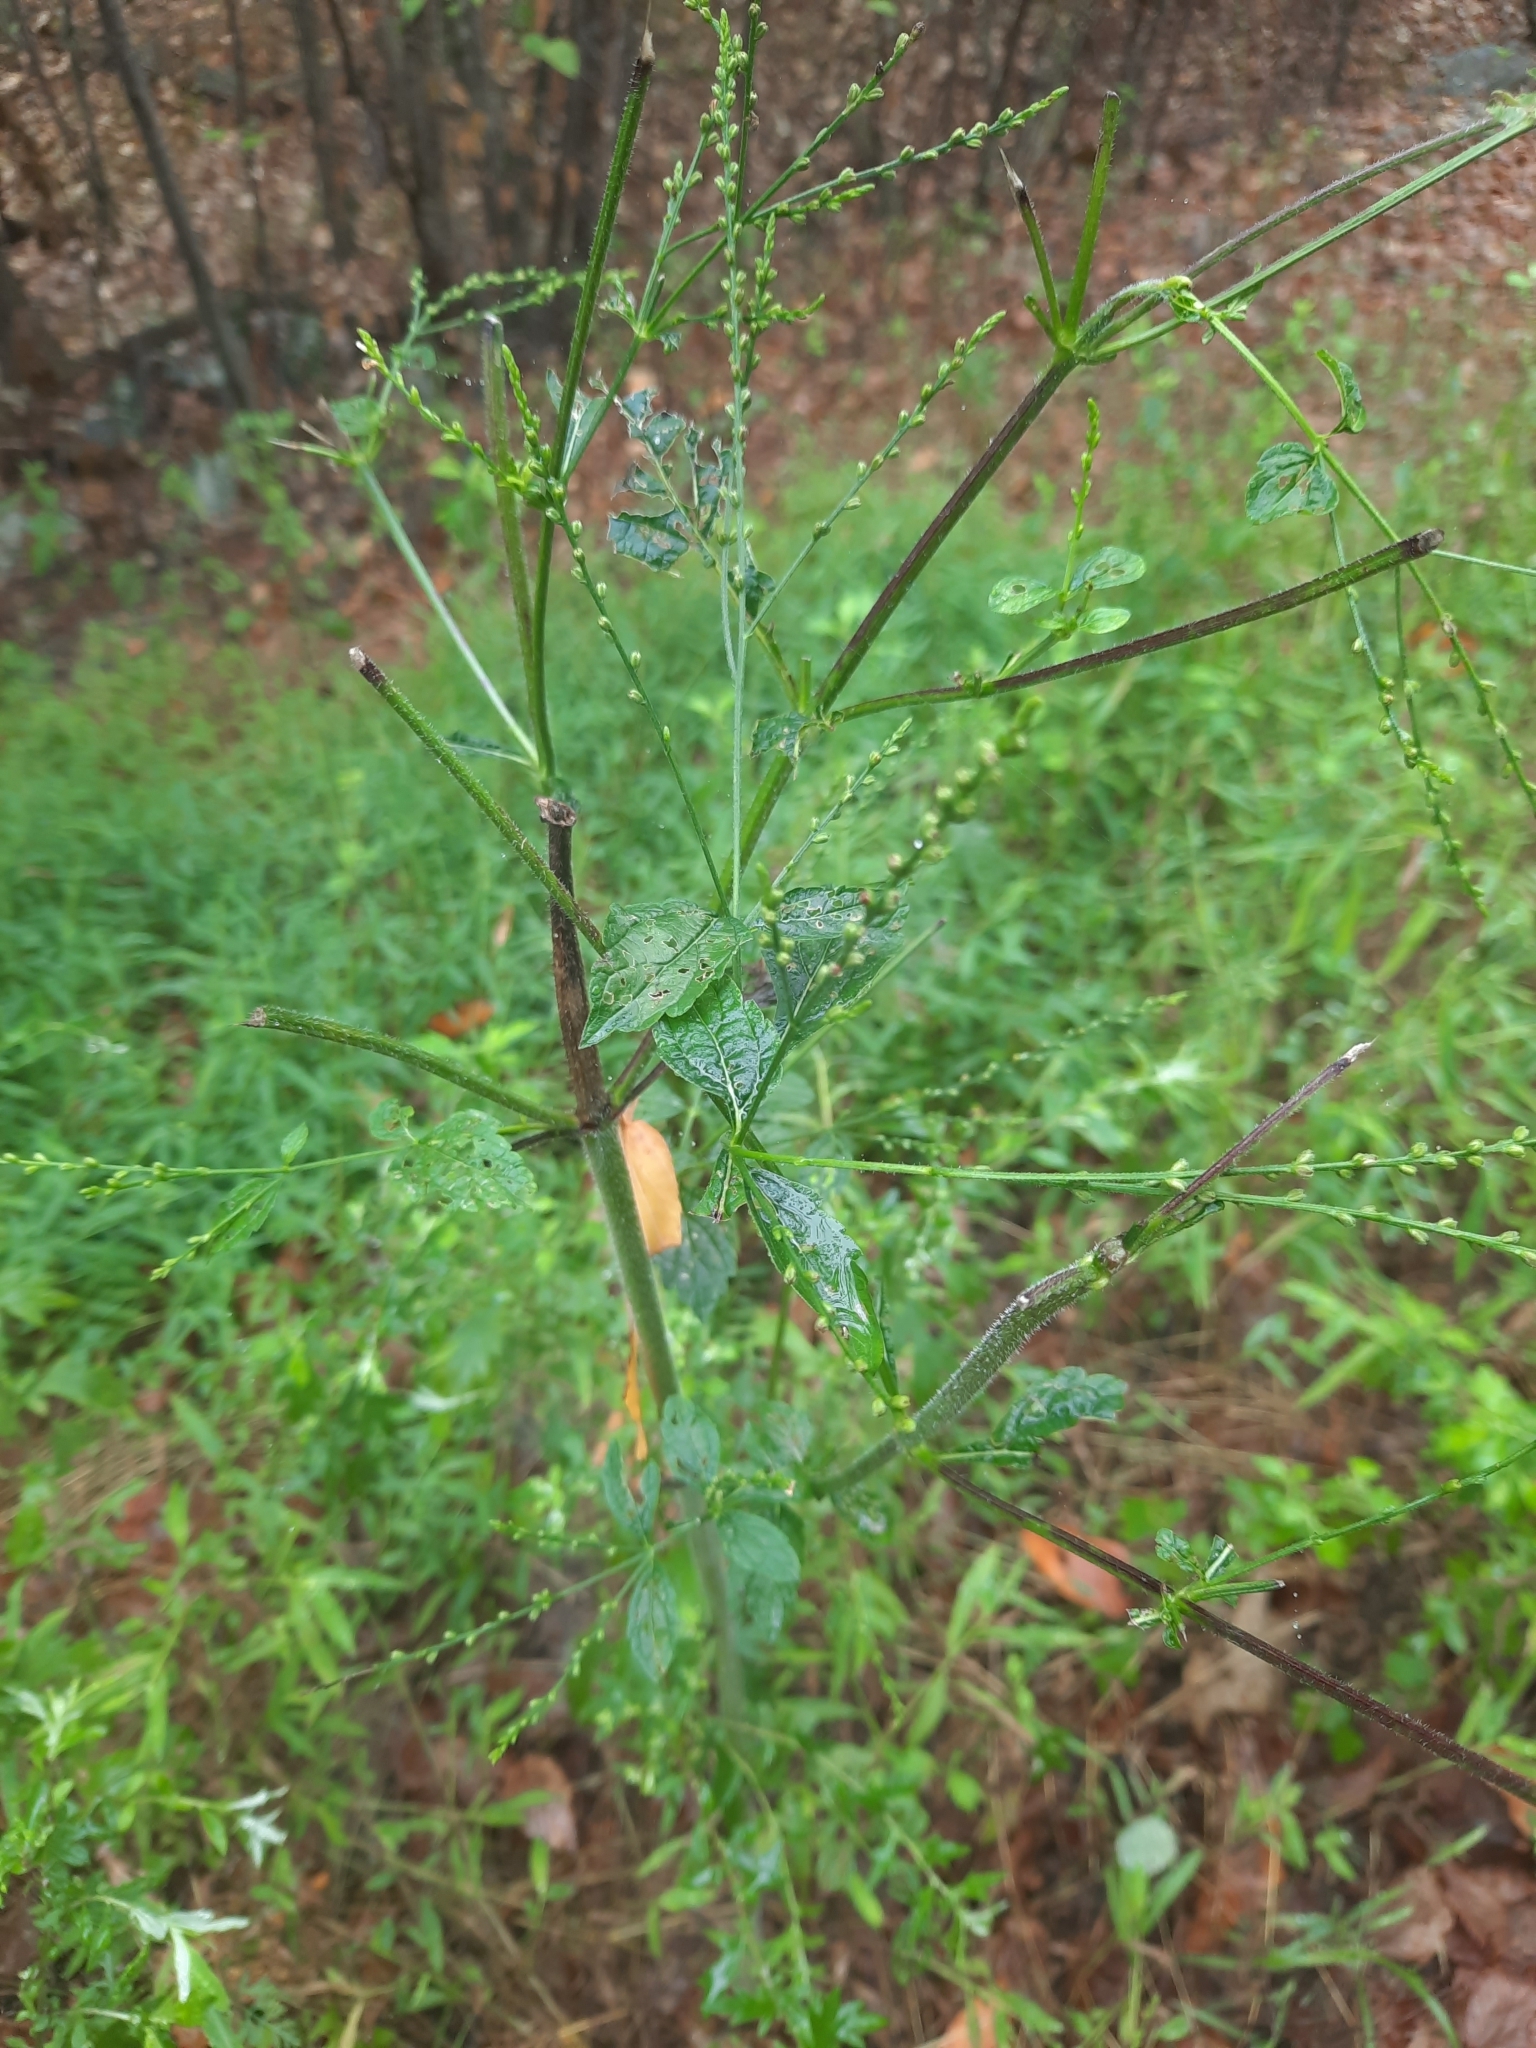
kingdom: Plantae
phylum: Tracheophyta
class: Magnoliopsida
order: Lamiales
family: Verbenaceae
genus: Verbena
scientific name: Verbena urticifolia
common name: Nettle-leaved vervain
